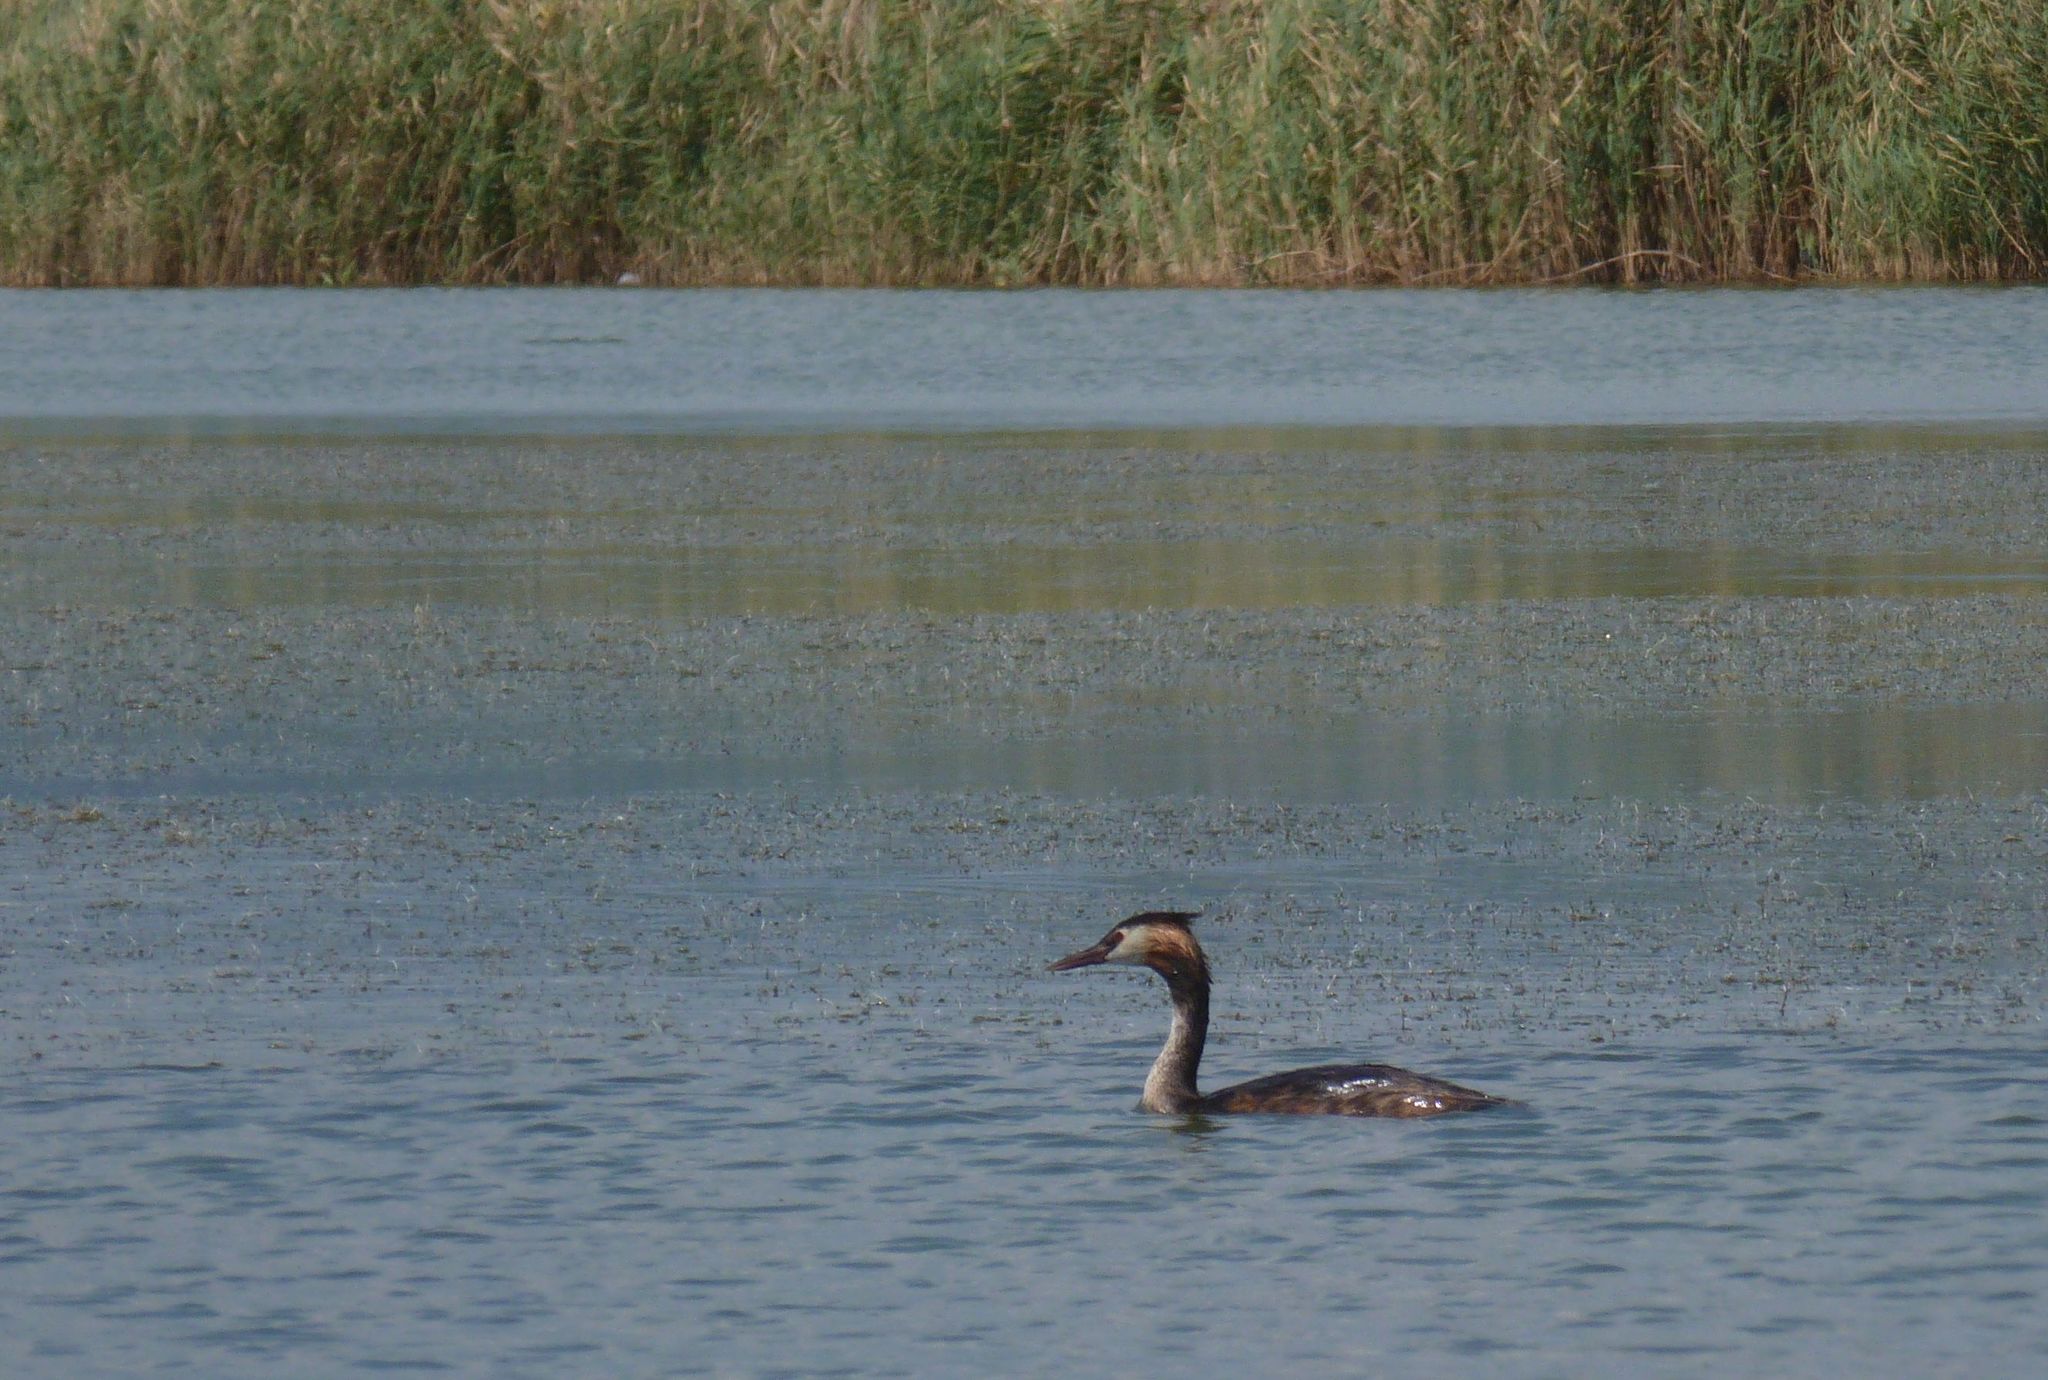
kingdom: Animalia
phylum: Chordata
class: Aves
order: Podicipediformes
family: Podicipedidae
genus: Podiceps
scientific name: Podiceps cristatus
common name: Great crested grebe
